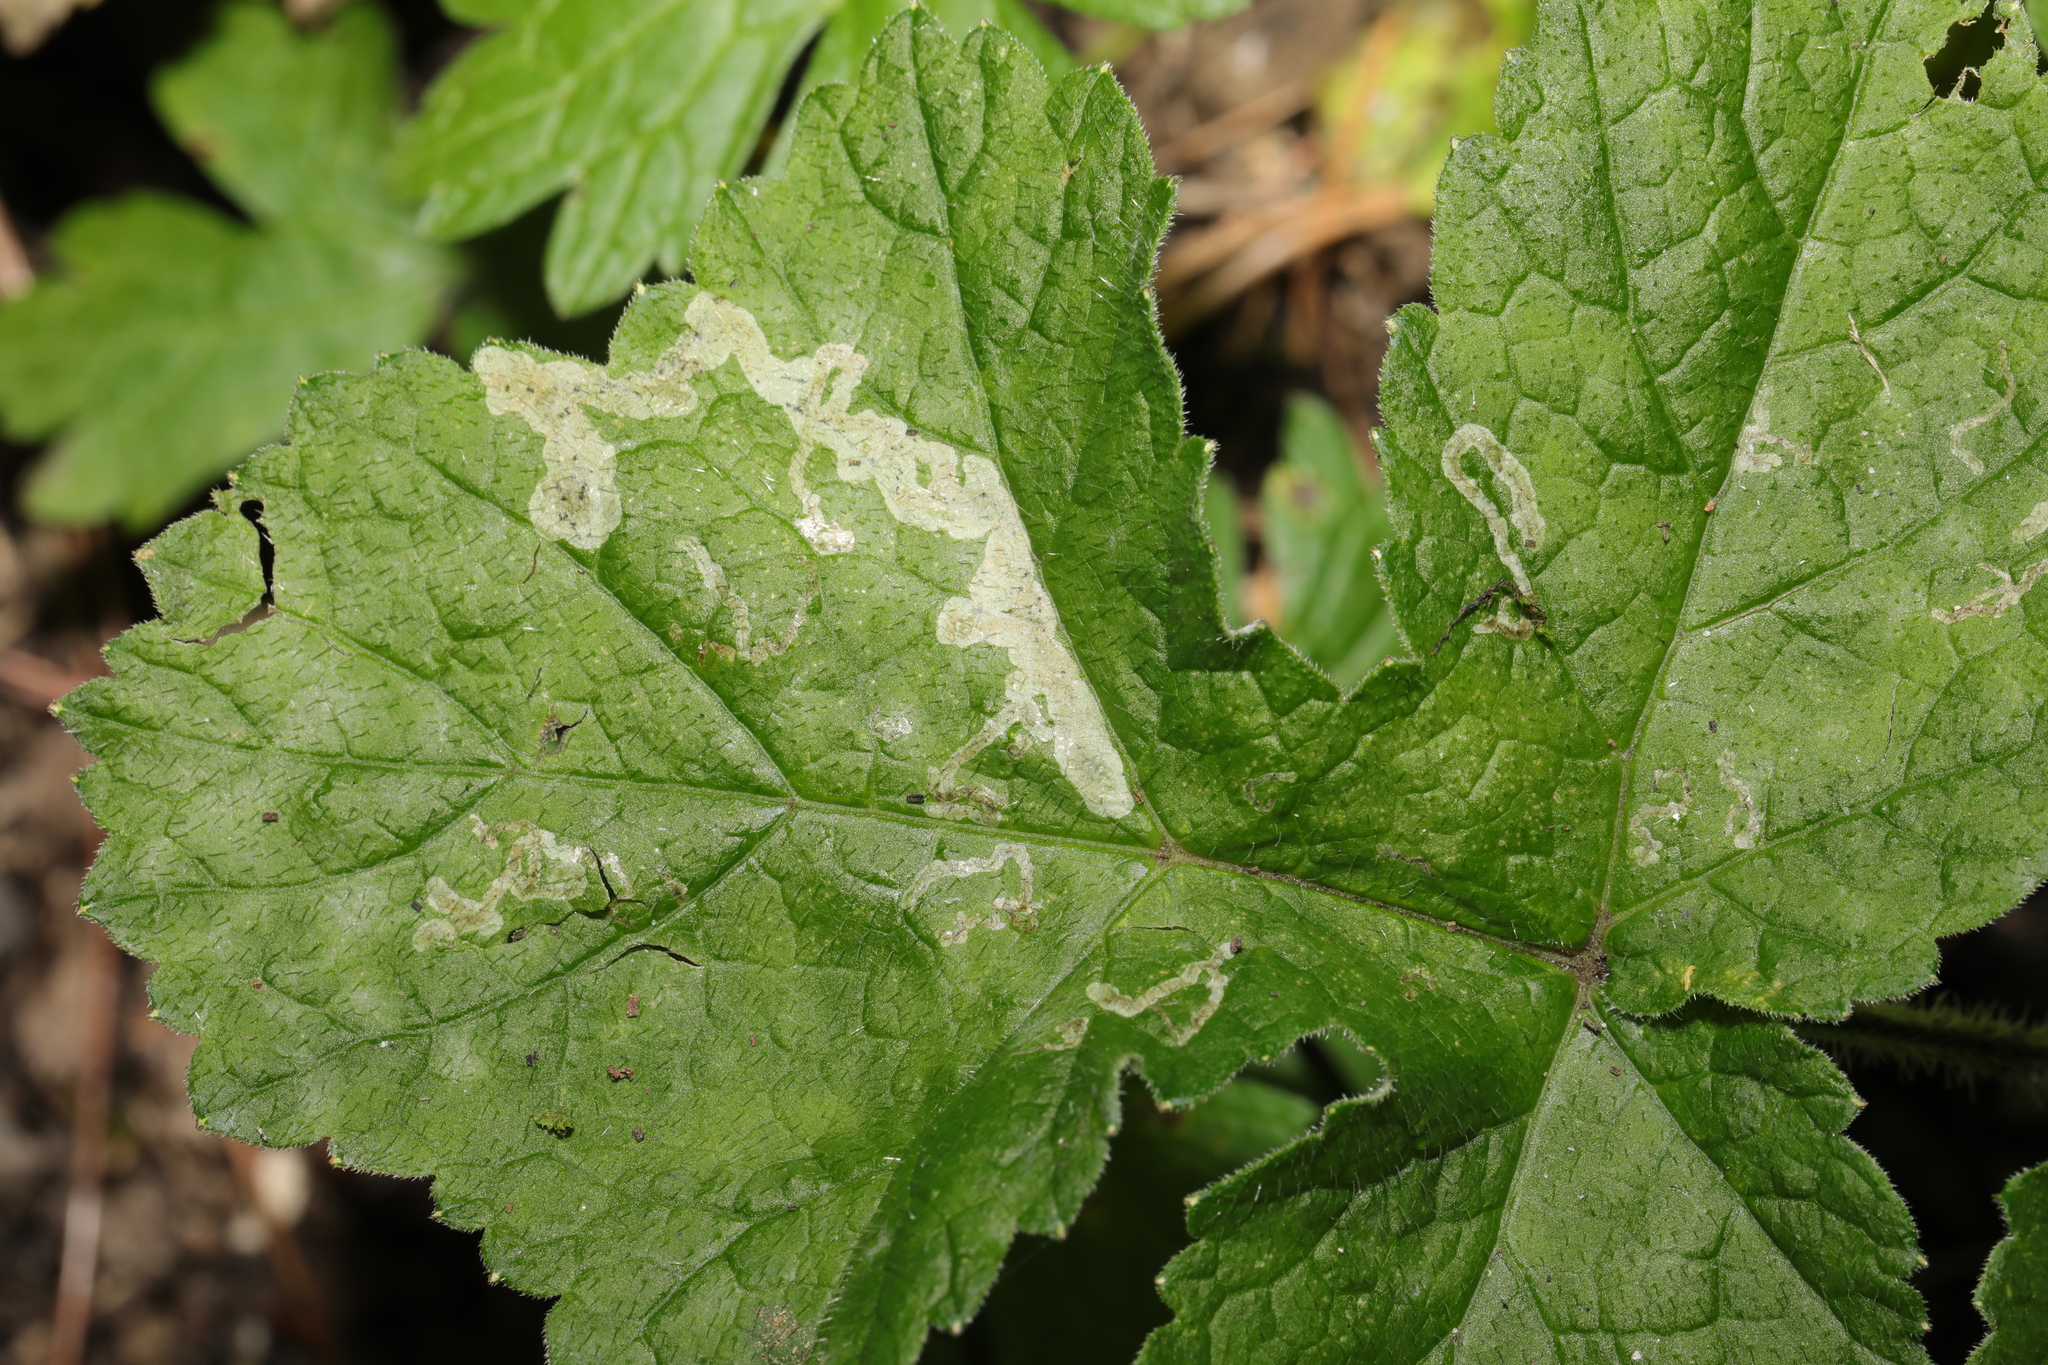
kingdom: Plantae
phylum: Tracheophyta
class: Magnoliopsida
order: Apiales
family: Apiaceae
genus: Heracleum
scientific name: Heracleum sphondylium
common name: Hogweed
